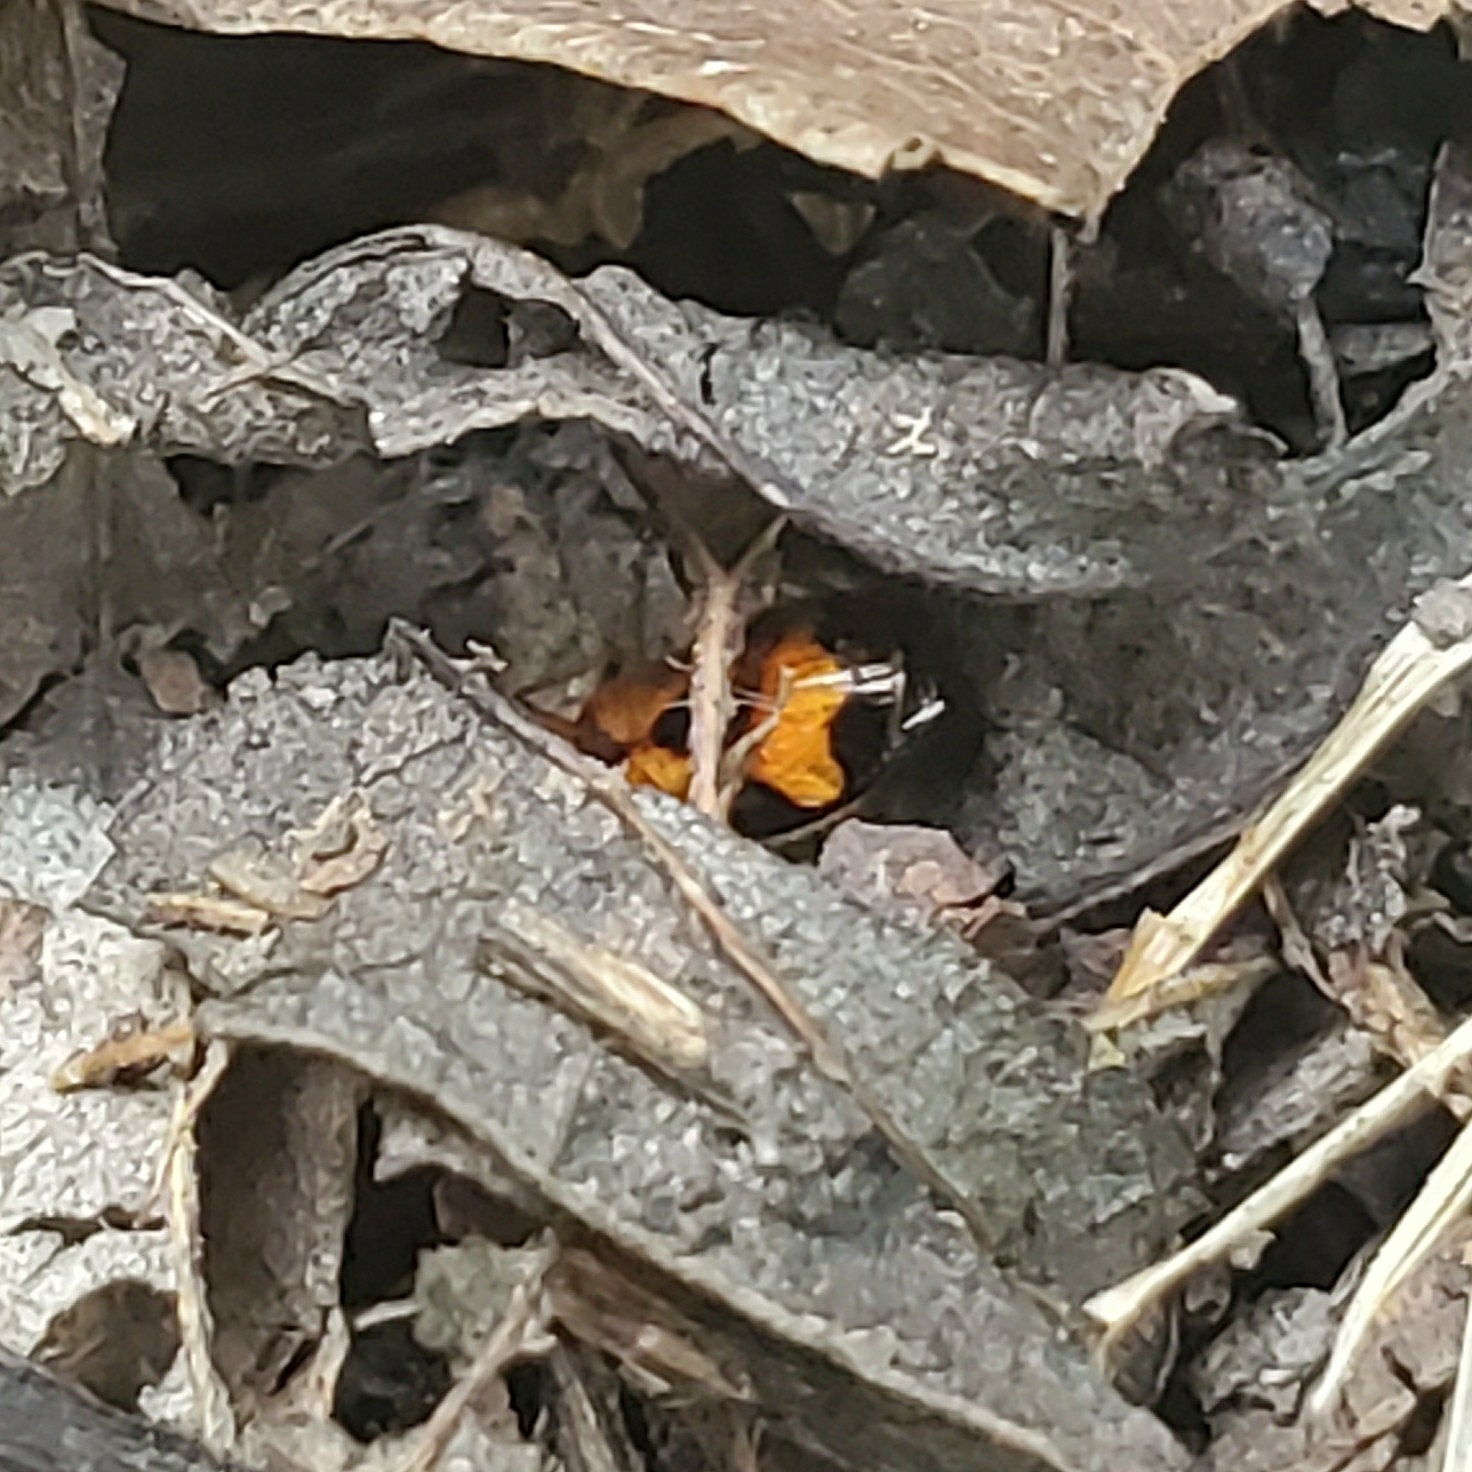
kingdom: Animalia
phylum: Arthropoda
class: Insecta
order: Coleoptera
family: Carabidae
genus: Colliuris
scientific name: Colliuris pensylvanica
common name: Long-necked ground beetle
